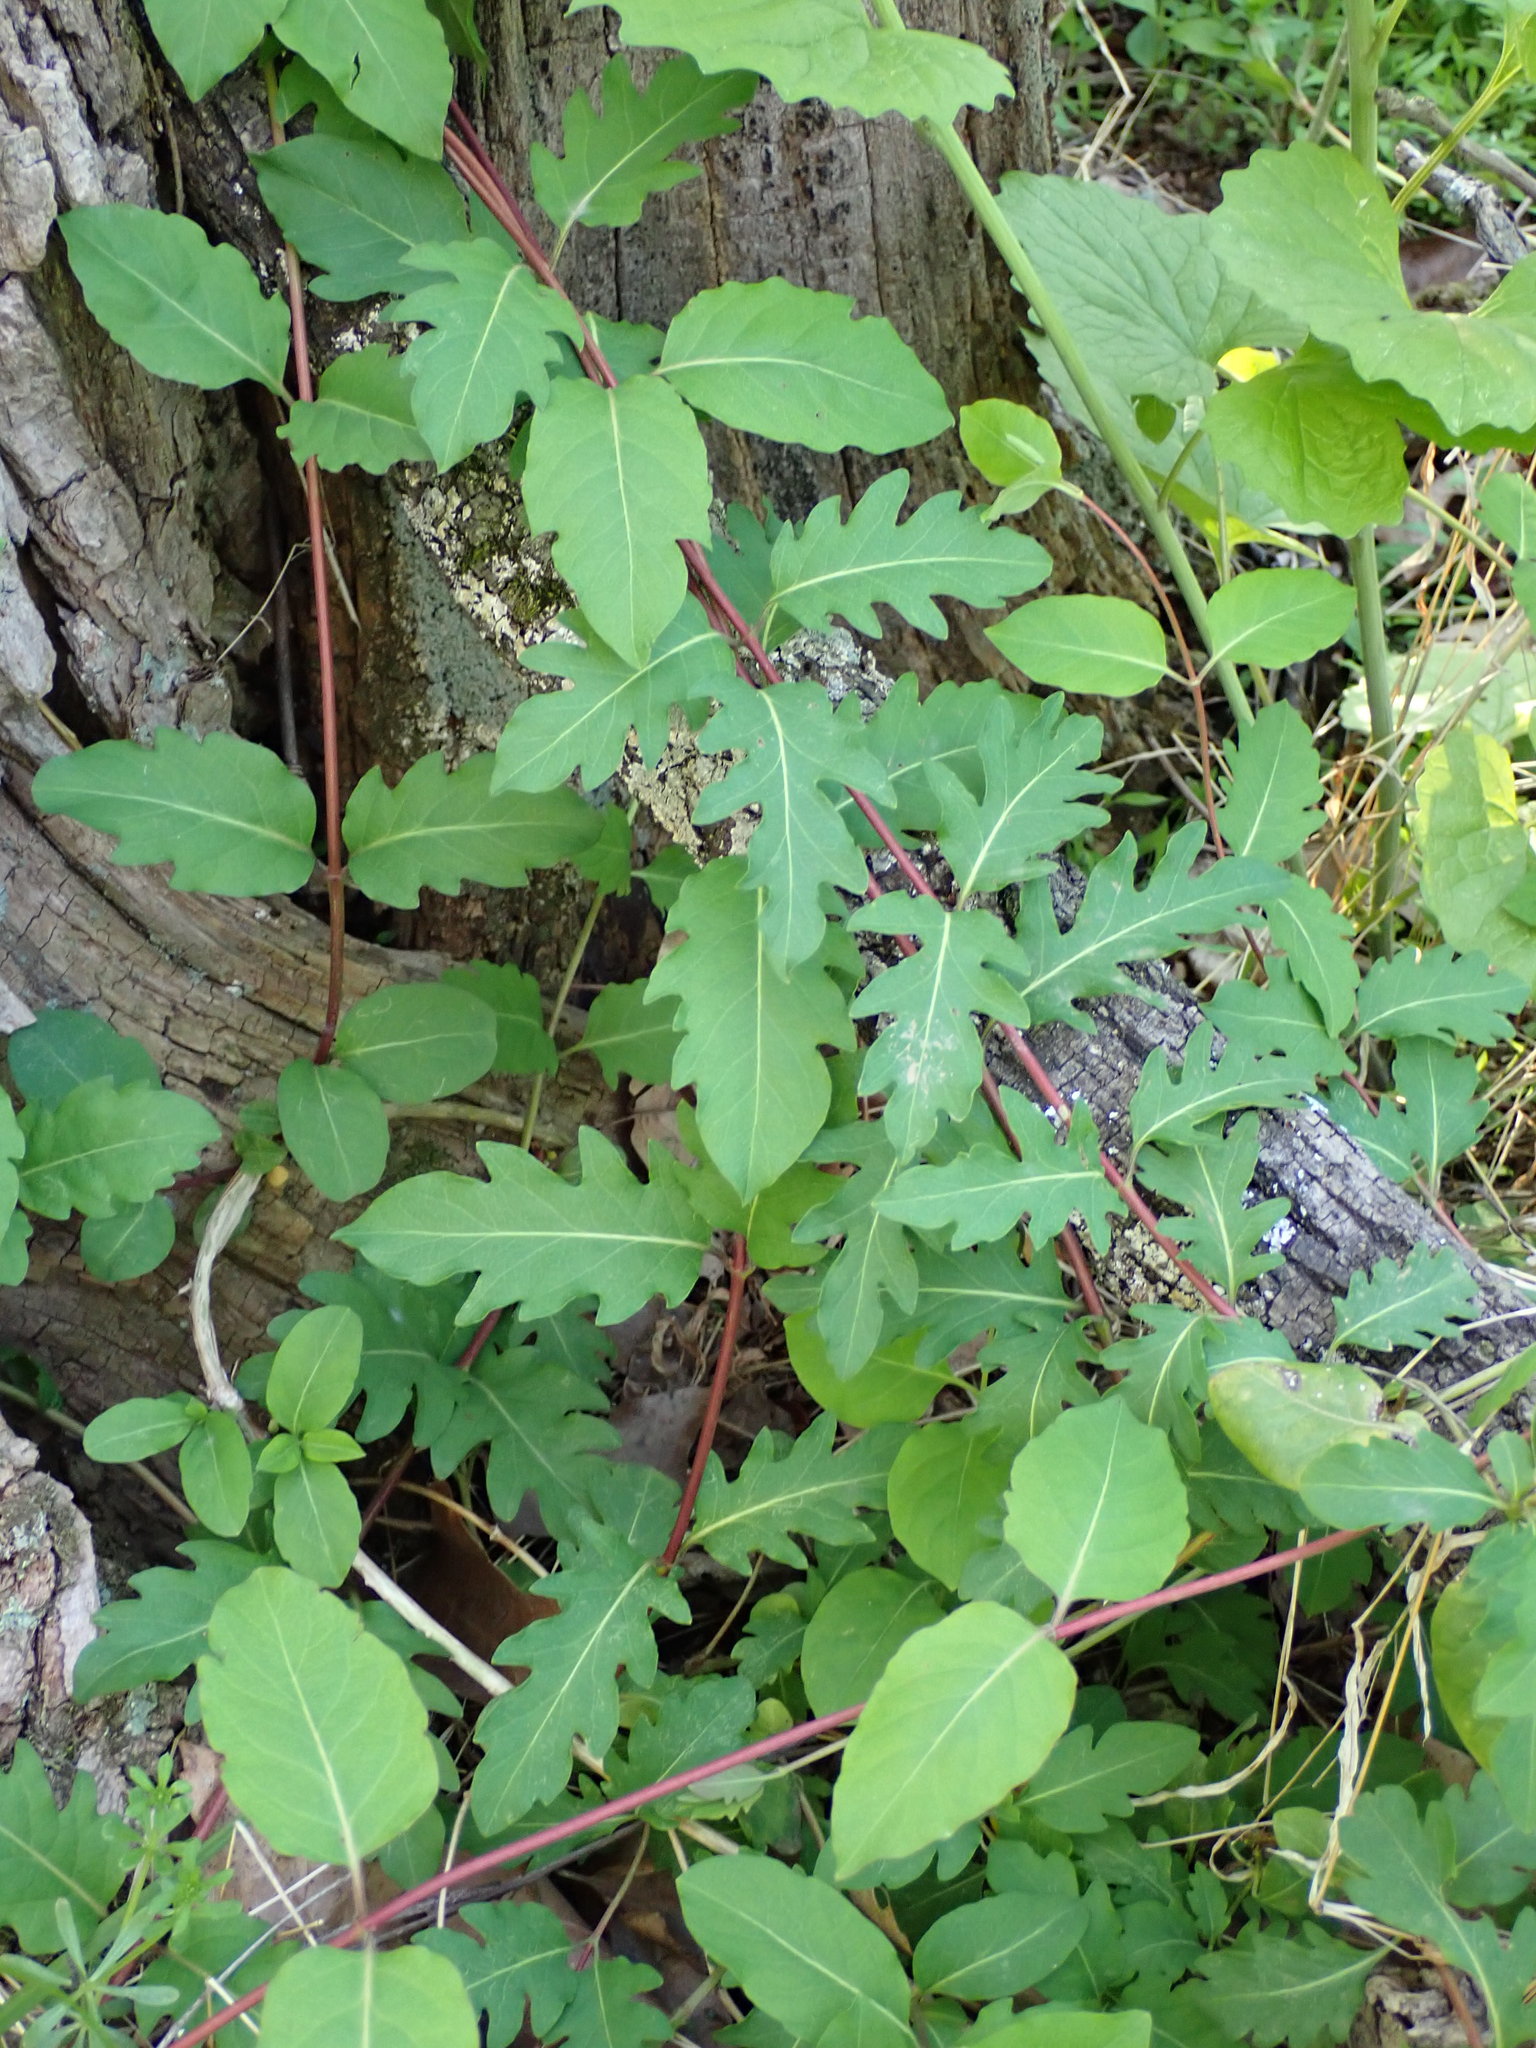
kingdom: Plantae
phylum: Tracheophyta
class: Magnoliopsida
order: Dipsacales
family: Caprifoliaceae
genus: Lonicera
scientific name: Lonicera japonica
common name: Japanese honeysuckle
